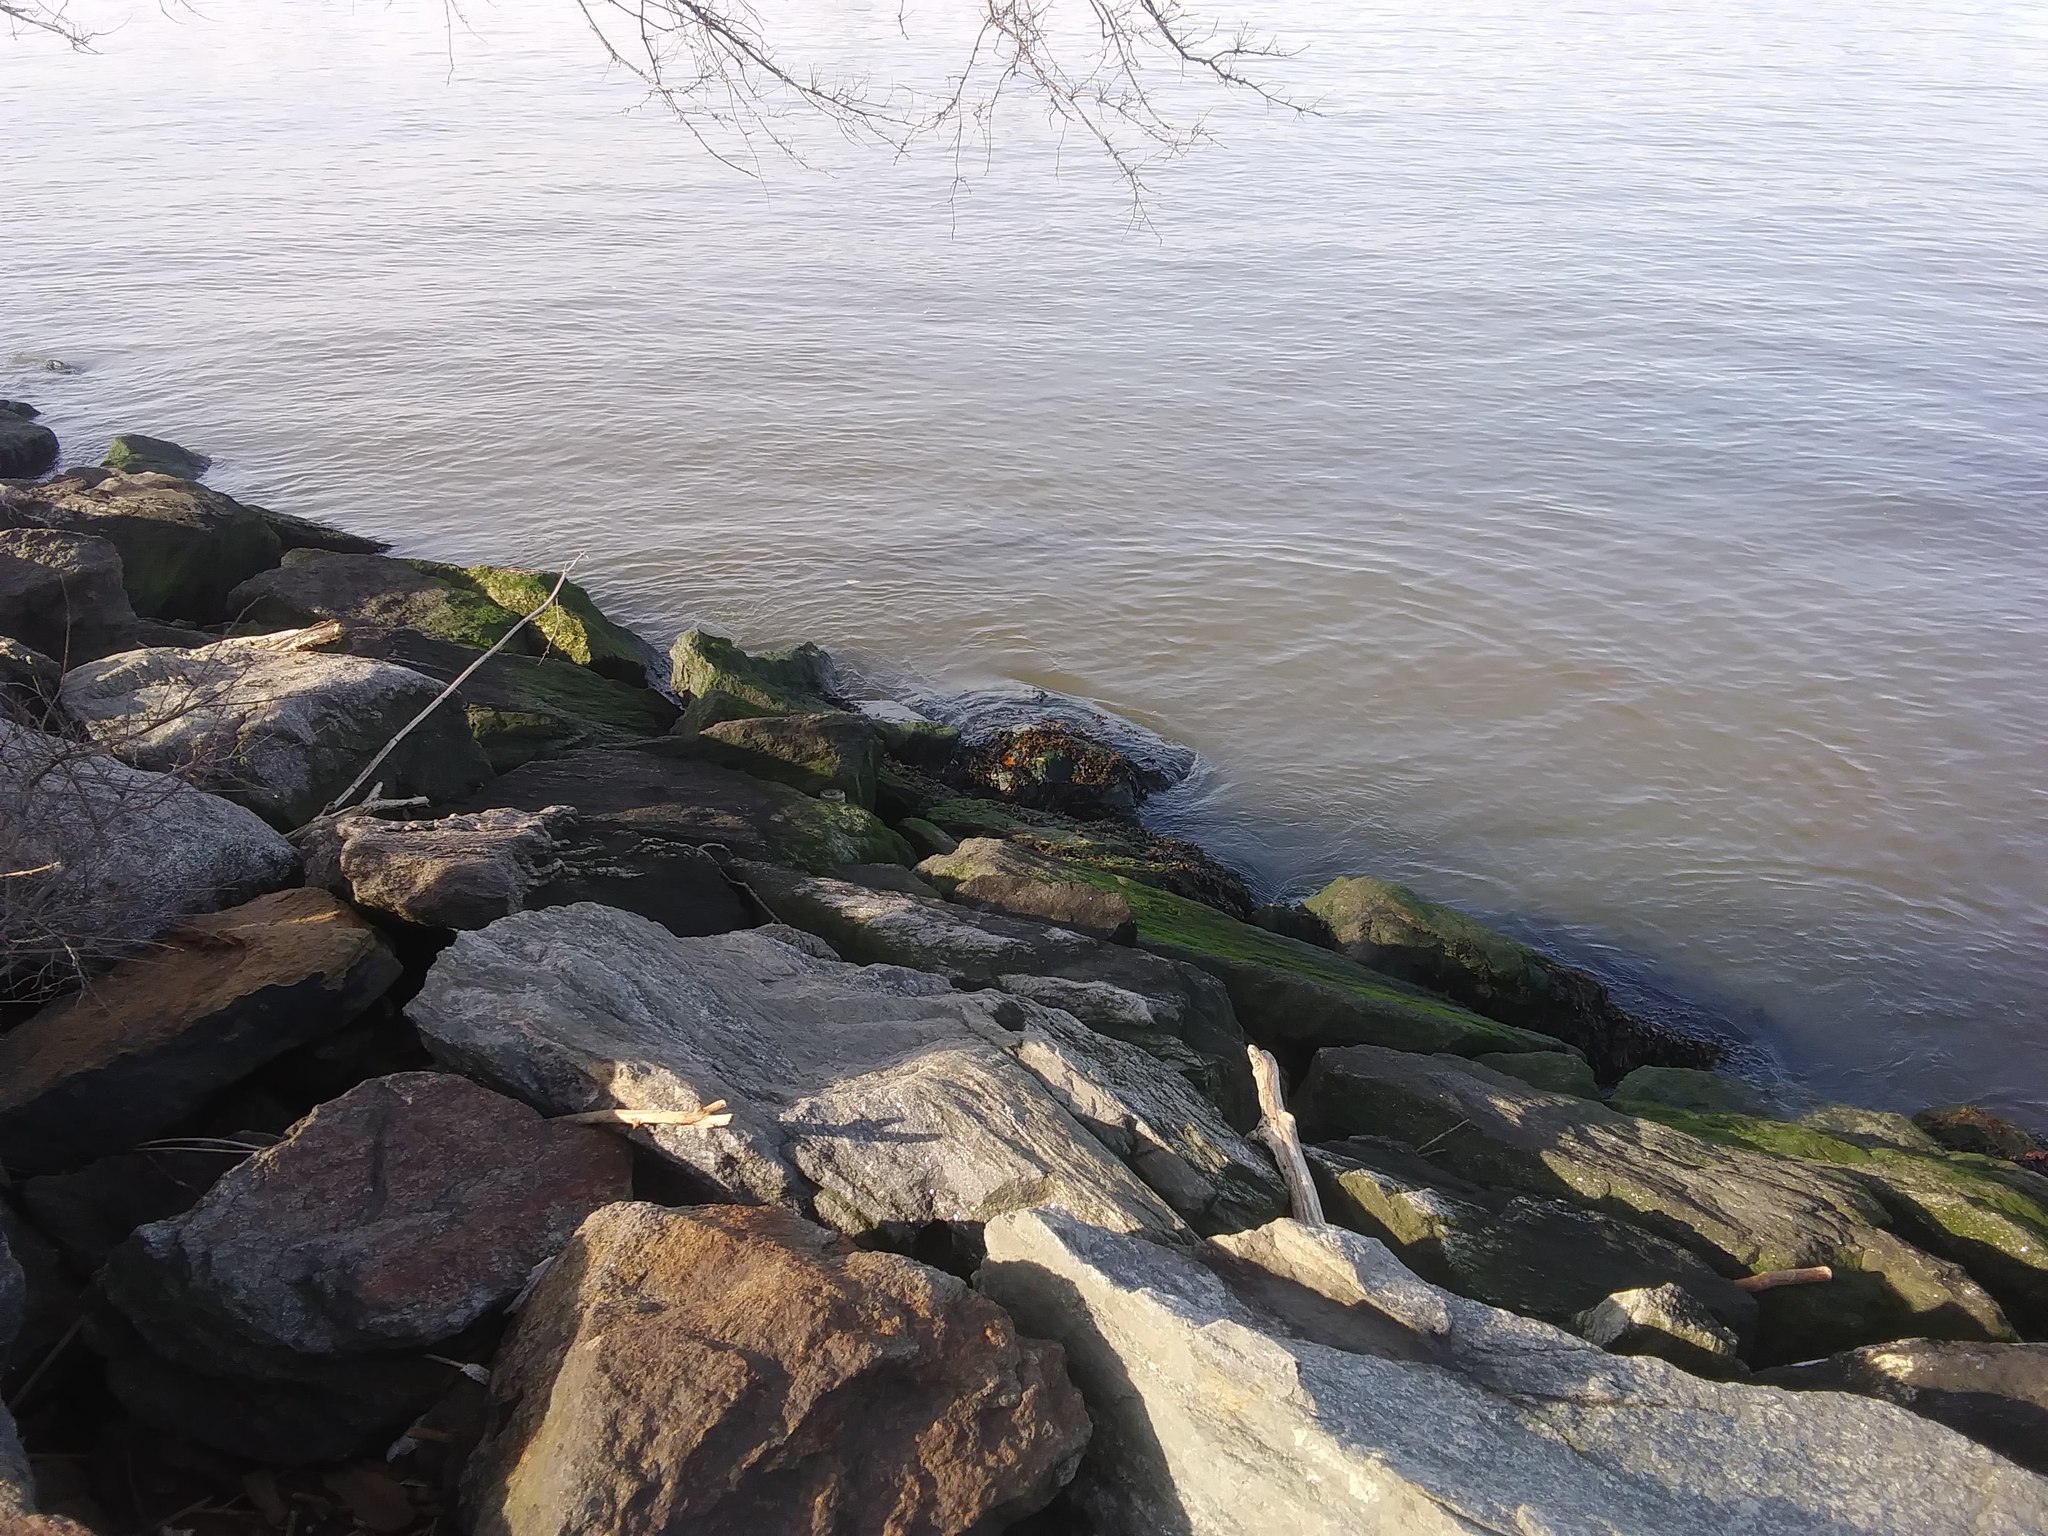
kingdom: Chromista
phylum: Ochrophyta
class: Phaeophyceae
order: Fucales
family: Fucaceae
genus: Fucus
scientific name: Fucus
